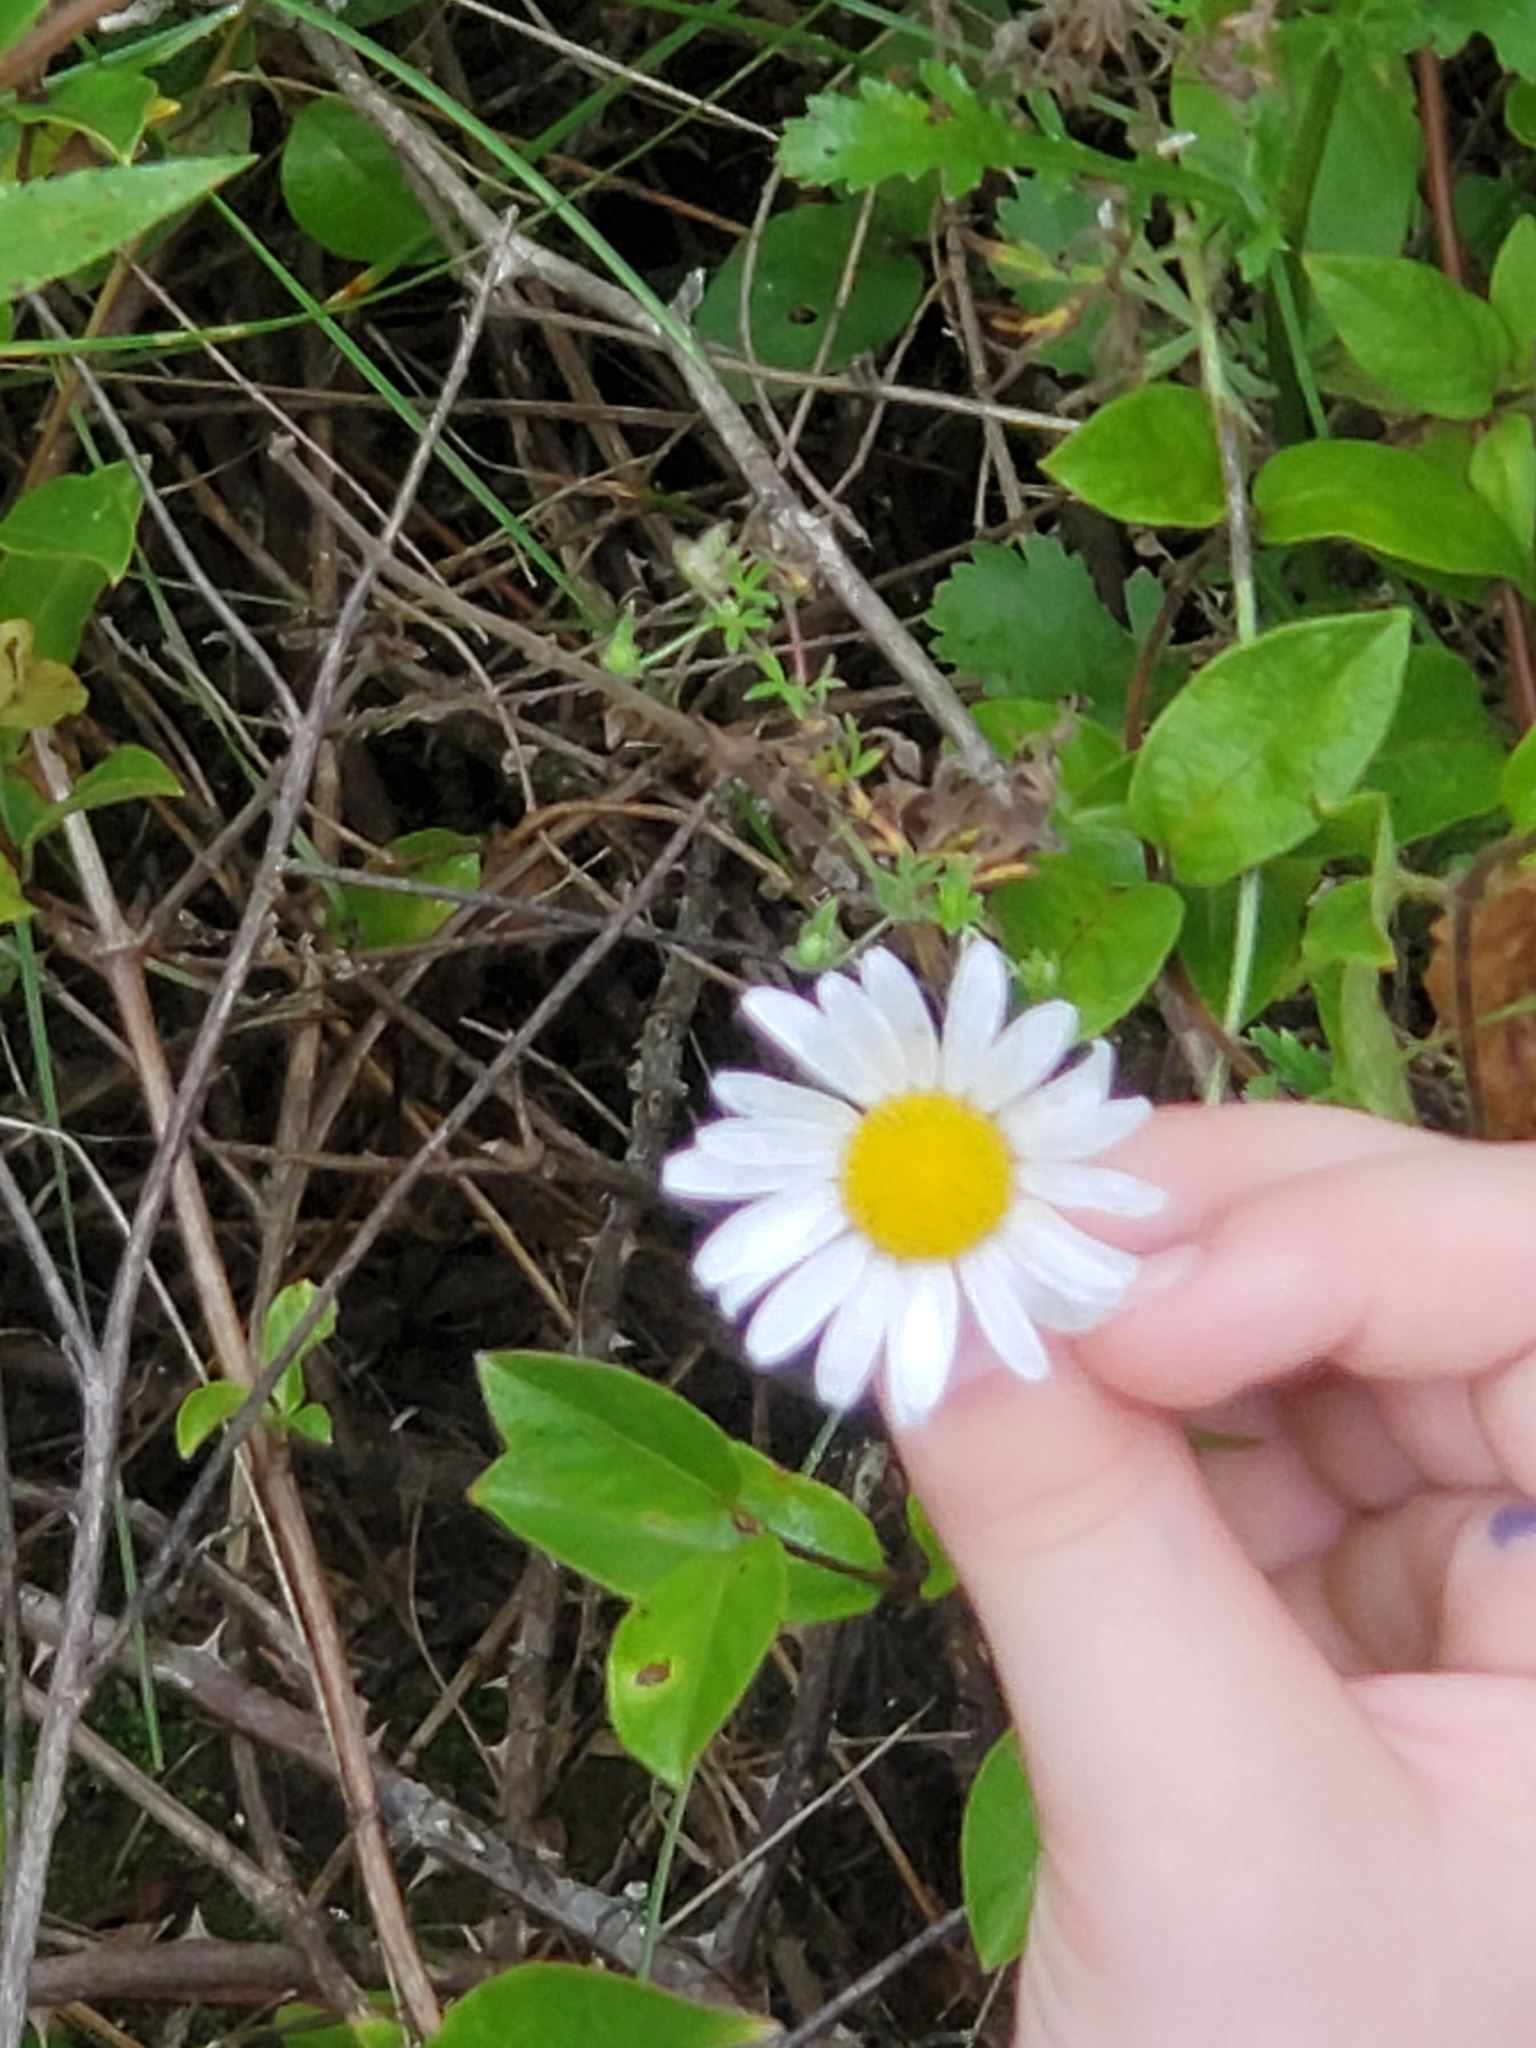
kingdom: Plantae
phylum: Tracheophyta
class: Magnoliopsida
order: Asterales
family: Asteraceae
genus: Leucanthemum
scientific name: Leucanthemum vulgare
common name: Oxeye daisy
